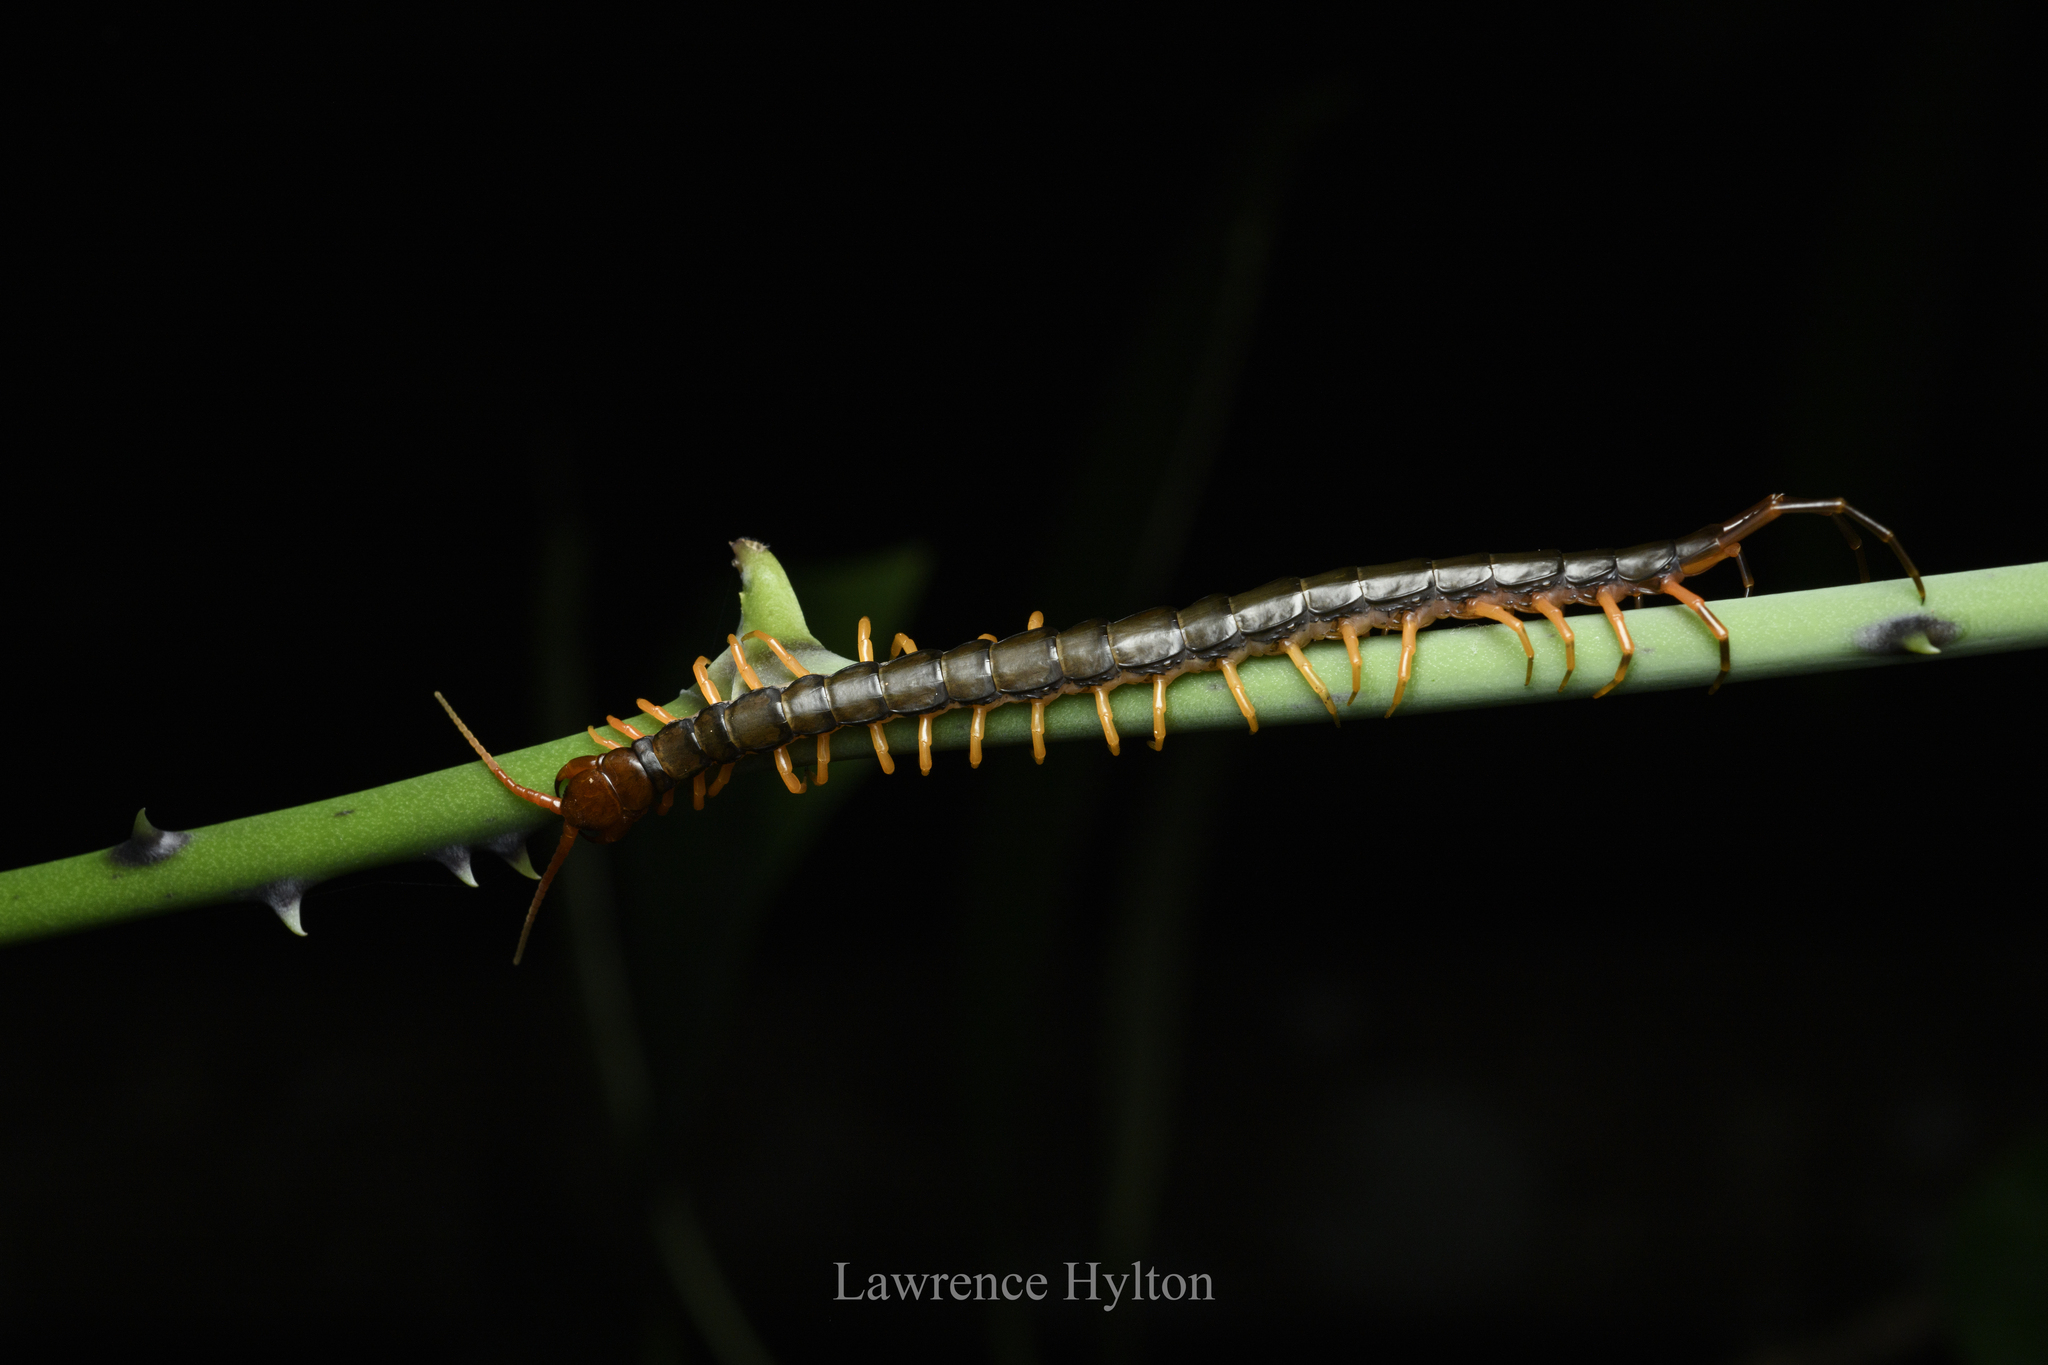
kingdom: Animalia
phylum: Arthropoda
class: Chilopoda
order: Scolopendromorpha
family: Scolopendridae
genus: Scolopendra
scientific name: Scolopendra hainana
